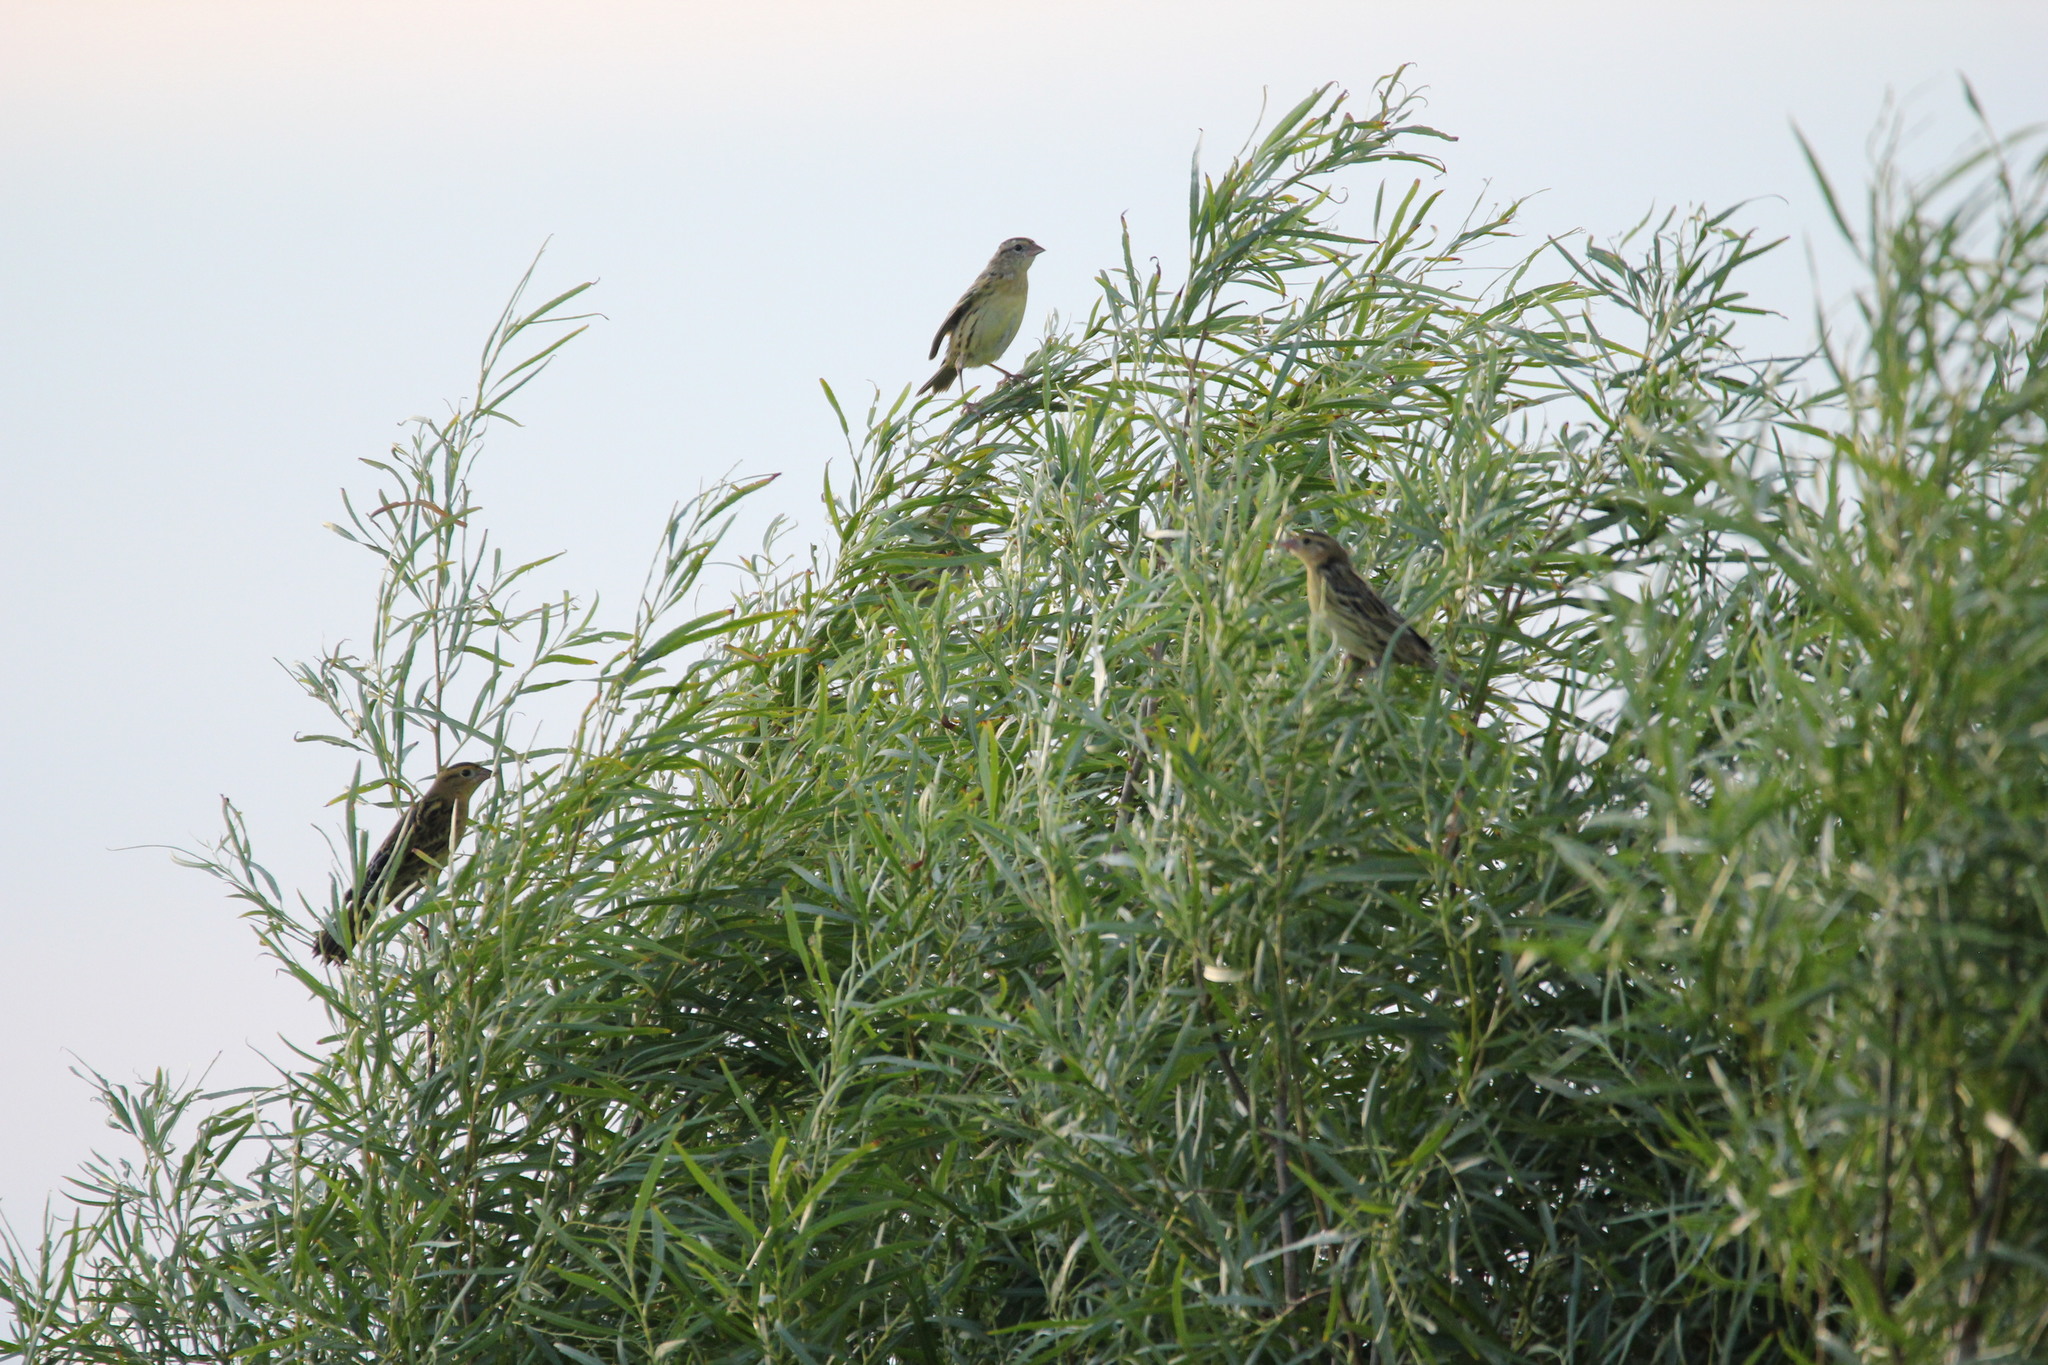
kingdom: Animalia
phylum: Chordata
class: Aves
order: Passeriformes
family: Icteridae
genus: Dolichonyx
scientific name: Dolichonyx oryzivorus
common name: Bobolink
